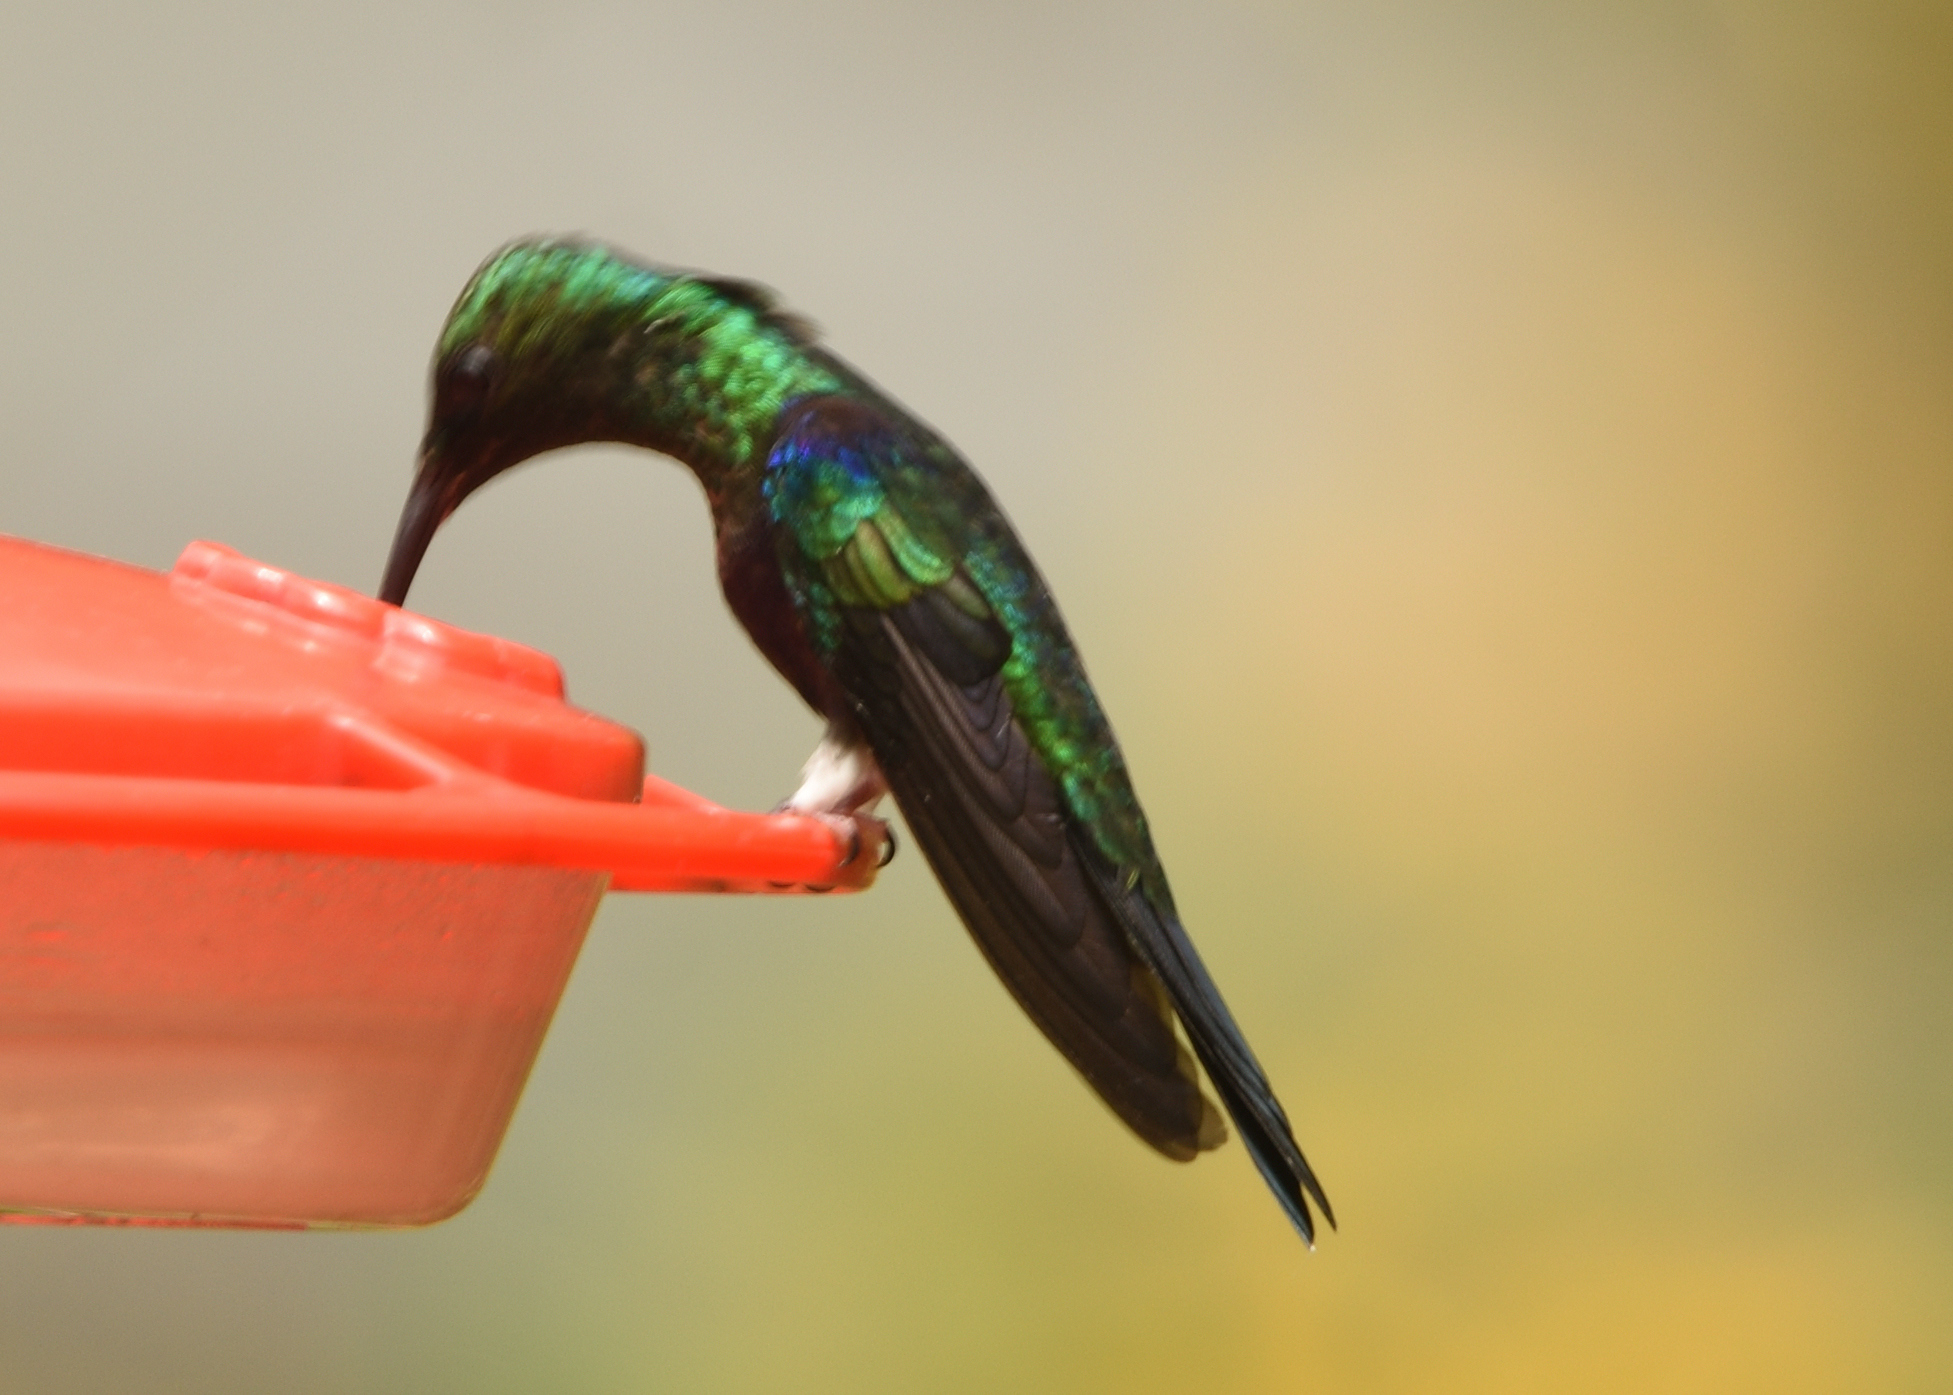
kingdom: Animalia
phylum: Chordata
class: Aves
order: Apodiformes
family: Trochilidae
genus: Thalurania
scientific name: Thalurania furcata
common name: Fork-tailed woodnymph
